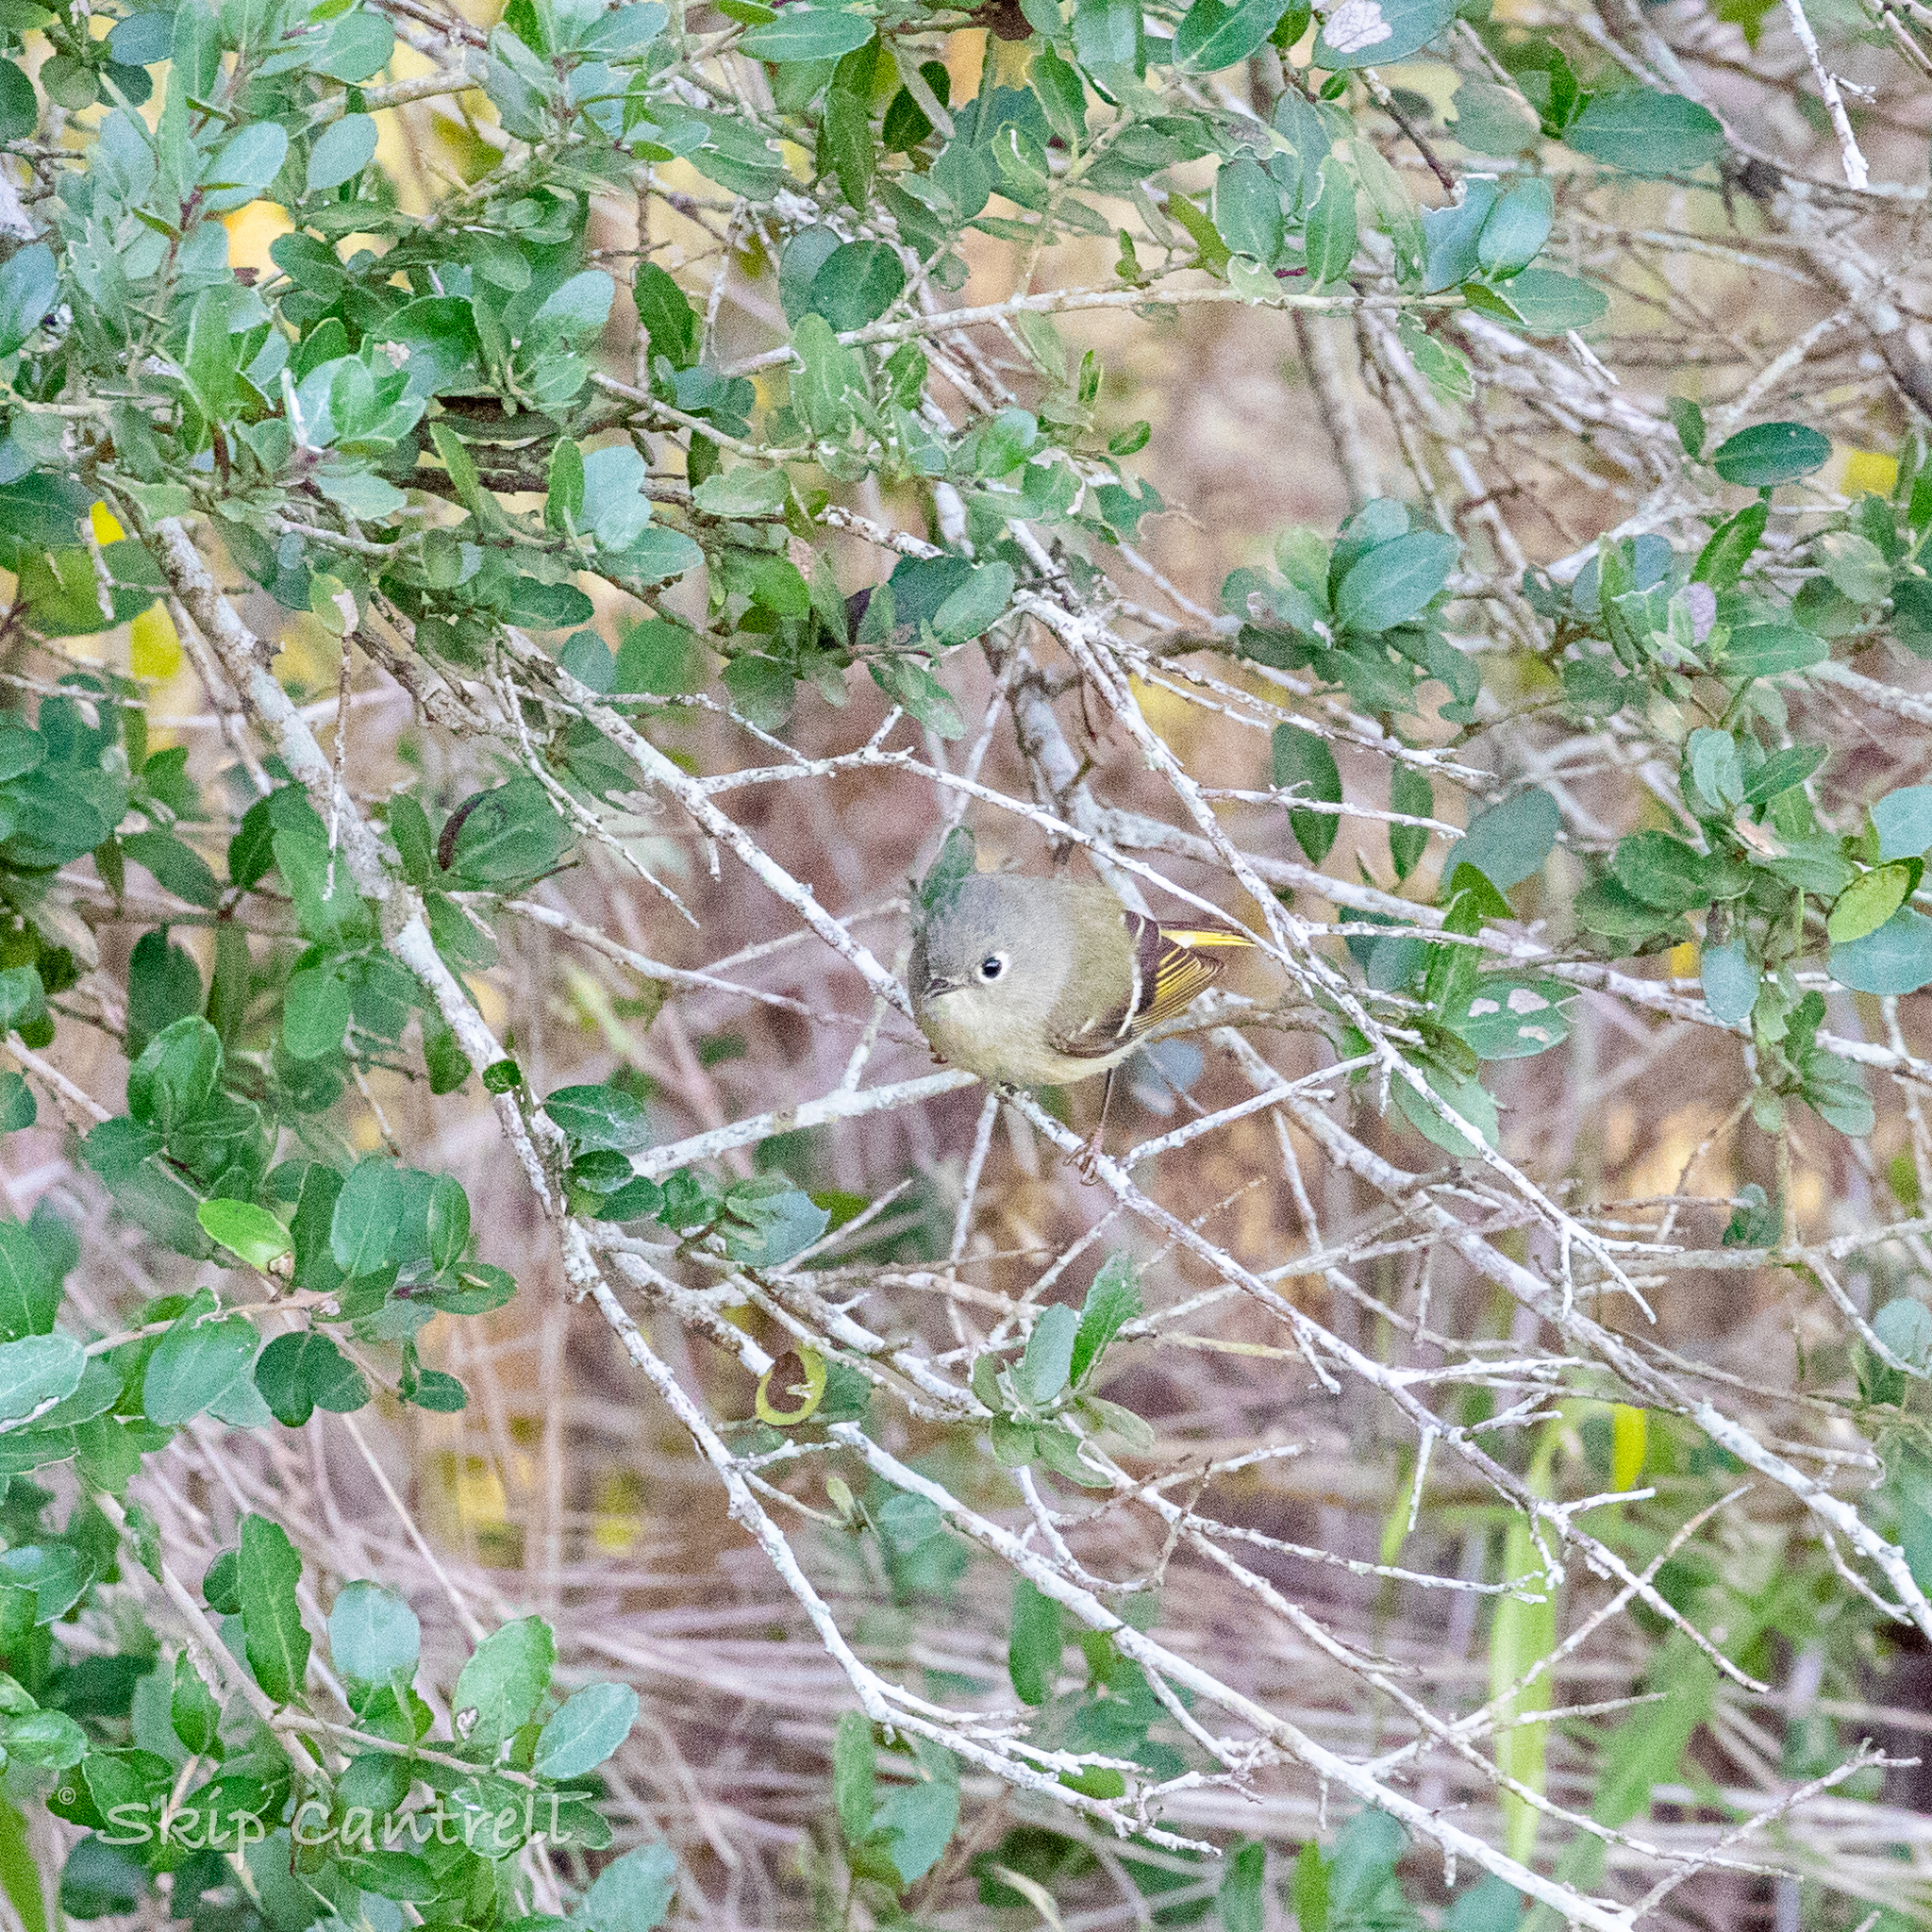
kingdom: Animalia
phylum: Chordata
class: Aves
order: Passeriformes
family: Regulidae
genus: Regulus
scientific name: Regulus calendula
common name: Ruby-crowned kinglet
